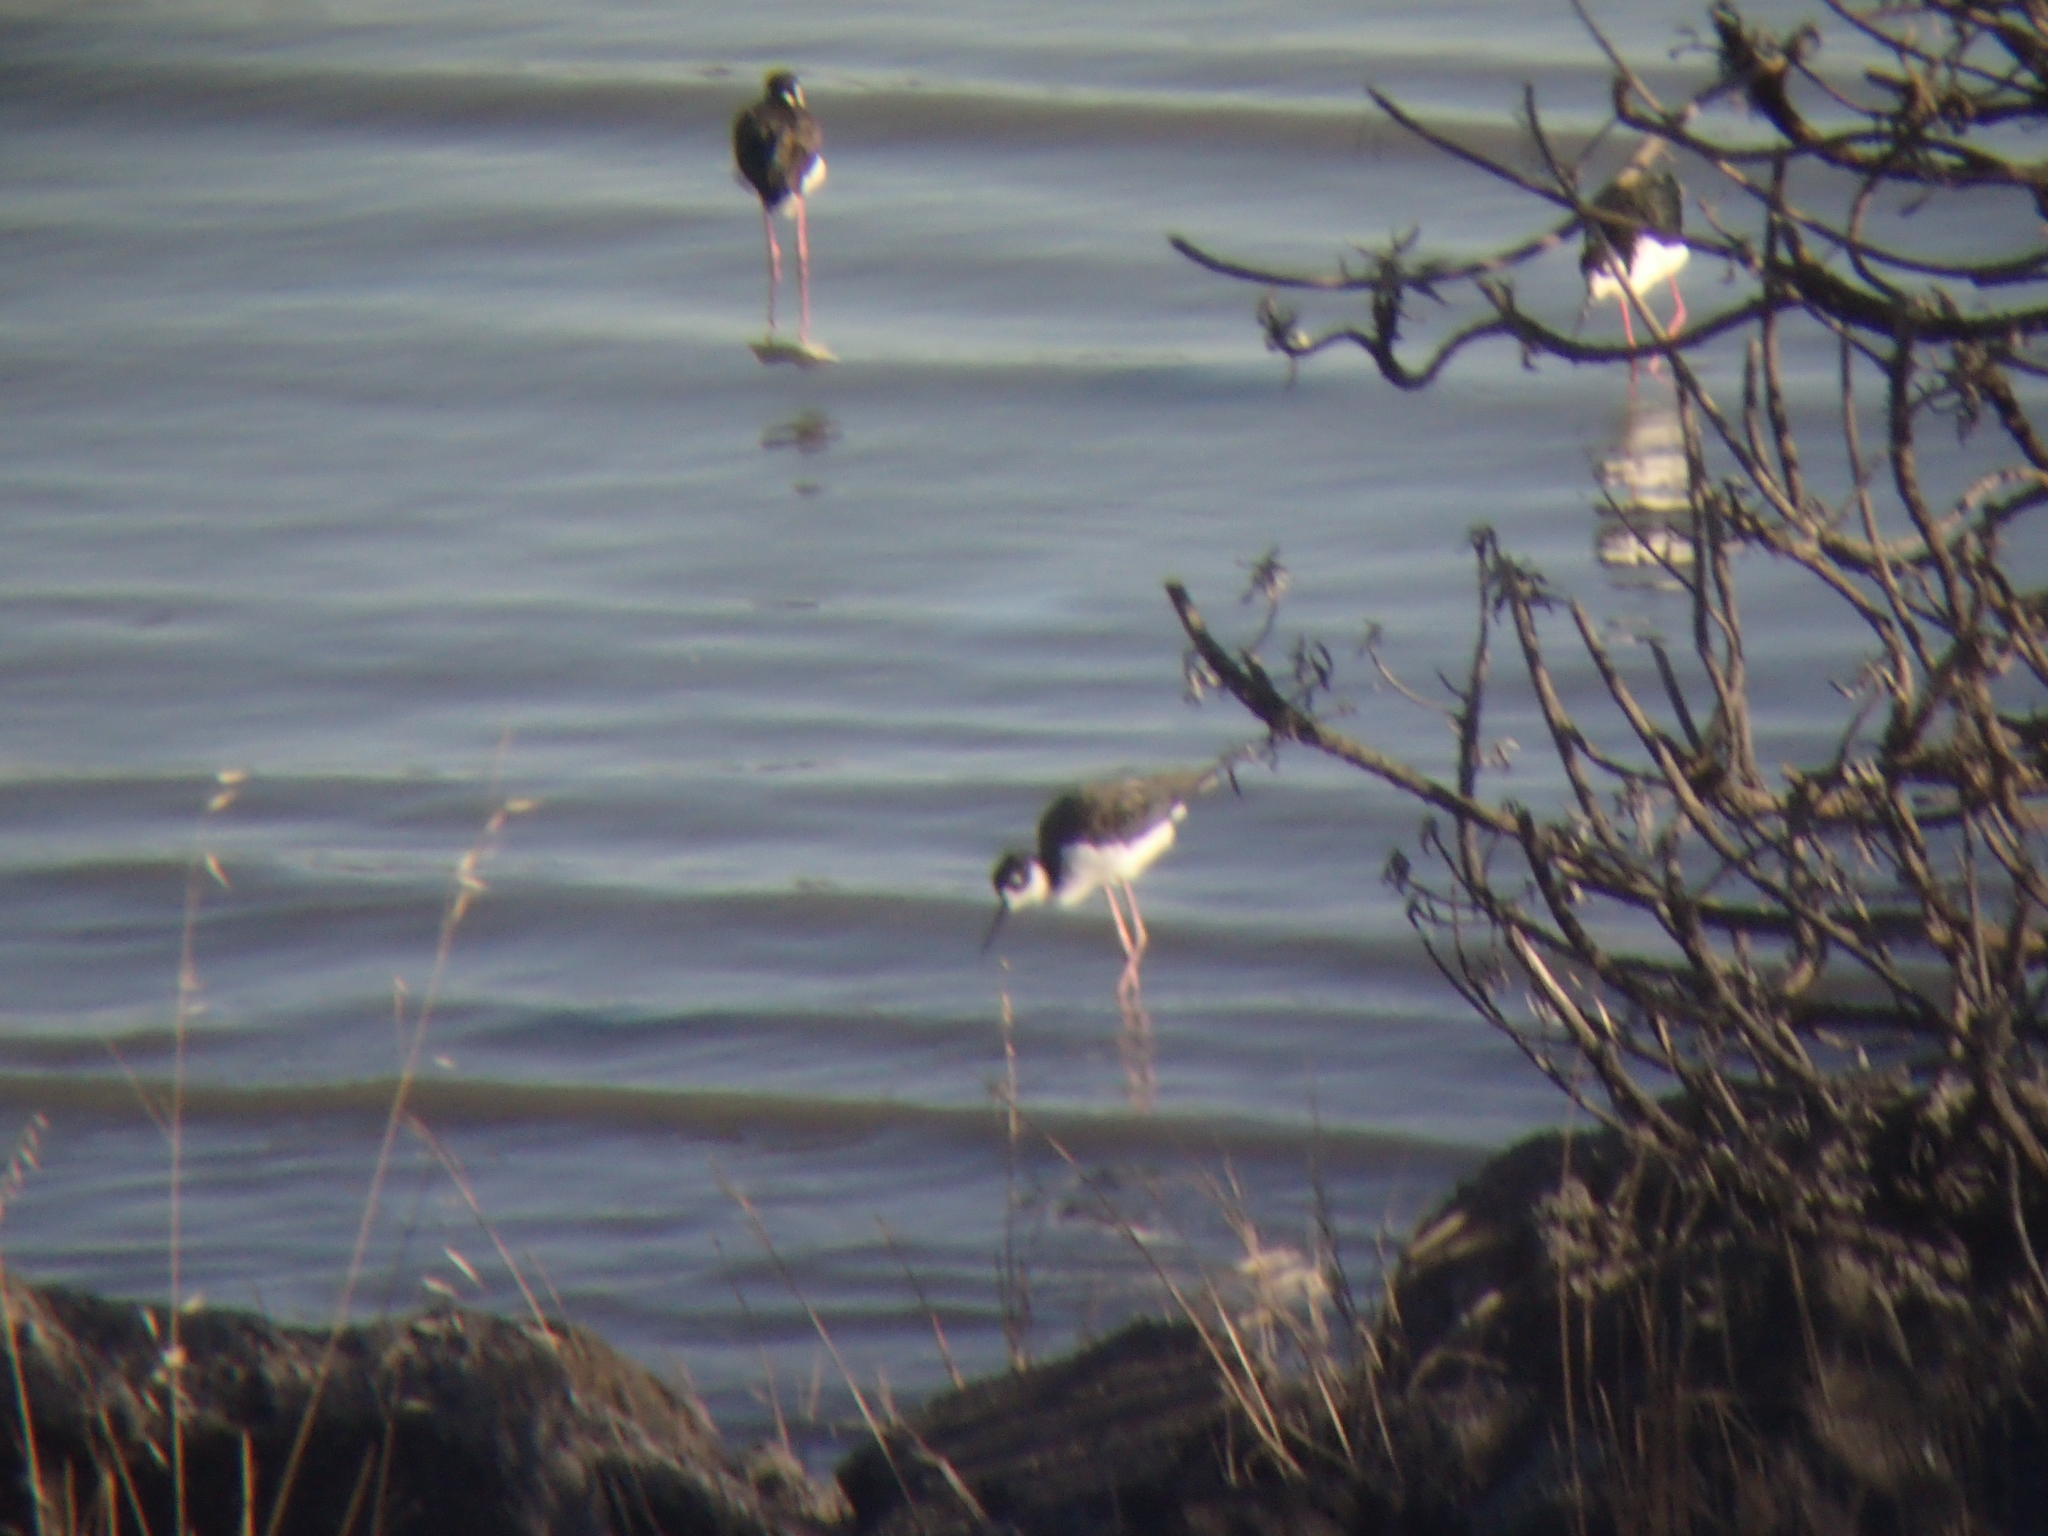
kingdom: Animalia
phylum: Chordata
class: Aves
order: Charadriiformes
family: Recurvirostridae
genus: Himantopus
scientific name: Himantopus mexicanus
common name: Black-necked stilt
